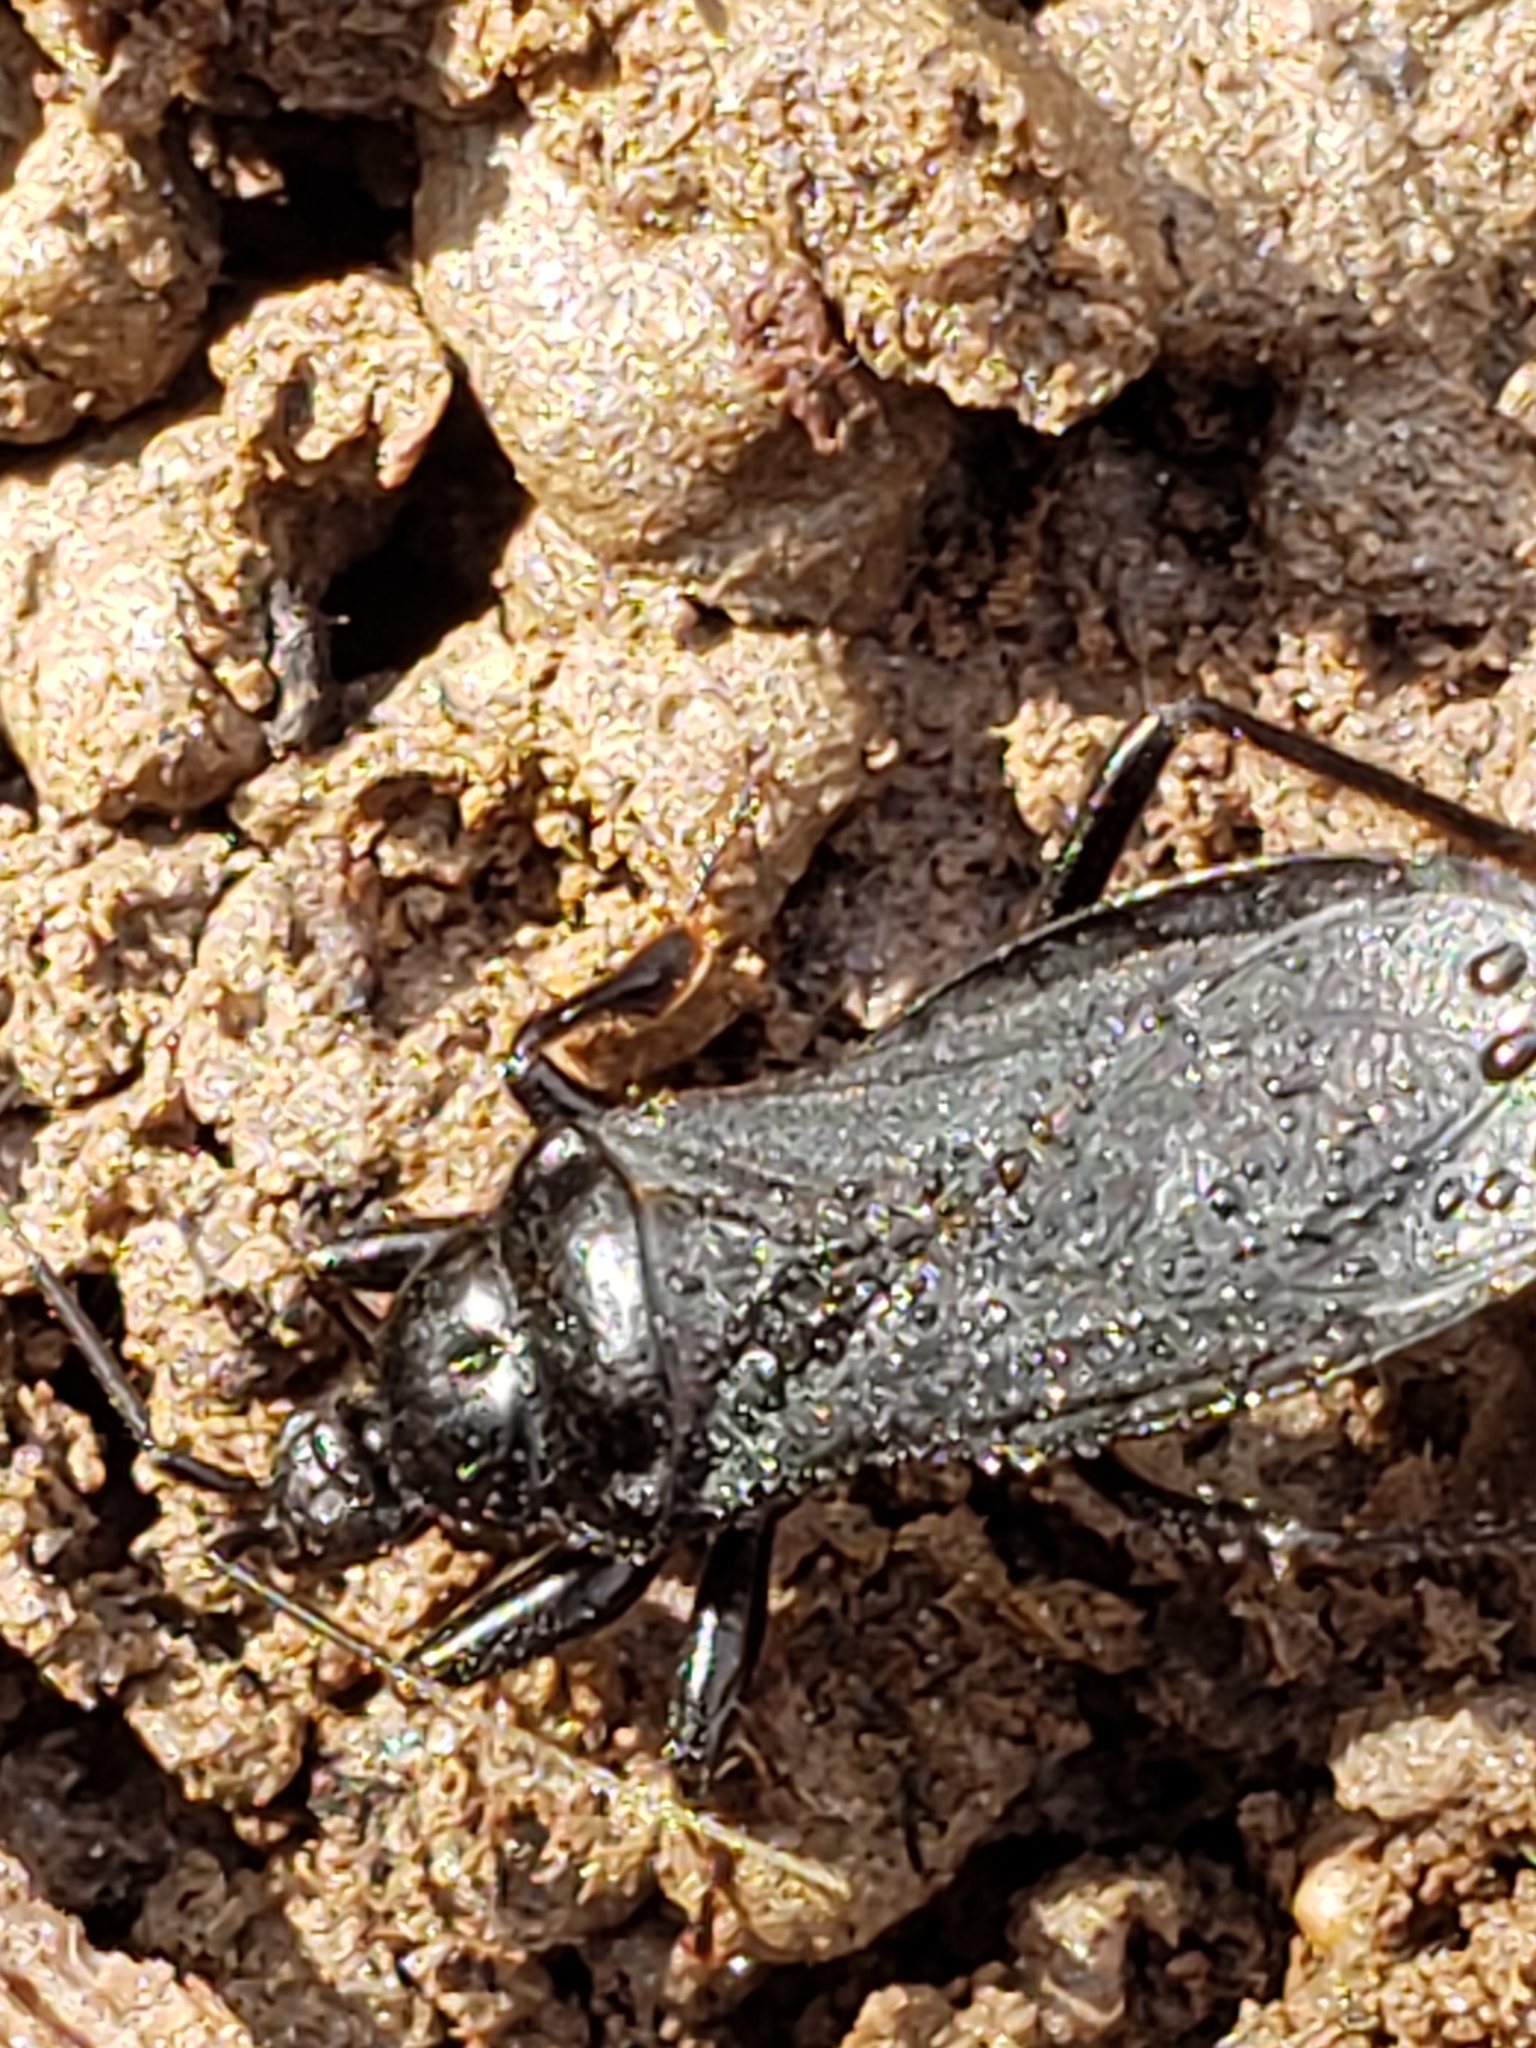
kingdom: Animalia
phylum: Arthropoda
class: Insecta
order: Hemiptera
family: Reduviidae
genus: Melanolestes
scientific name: Melanolestes picipes
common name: Assassin bug
